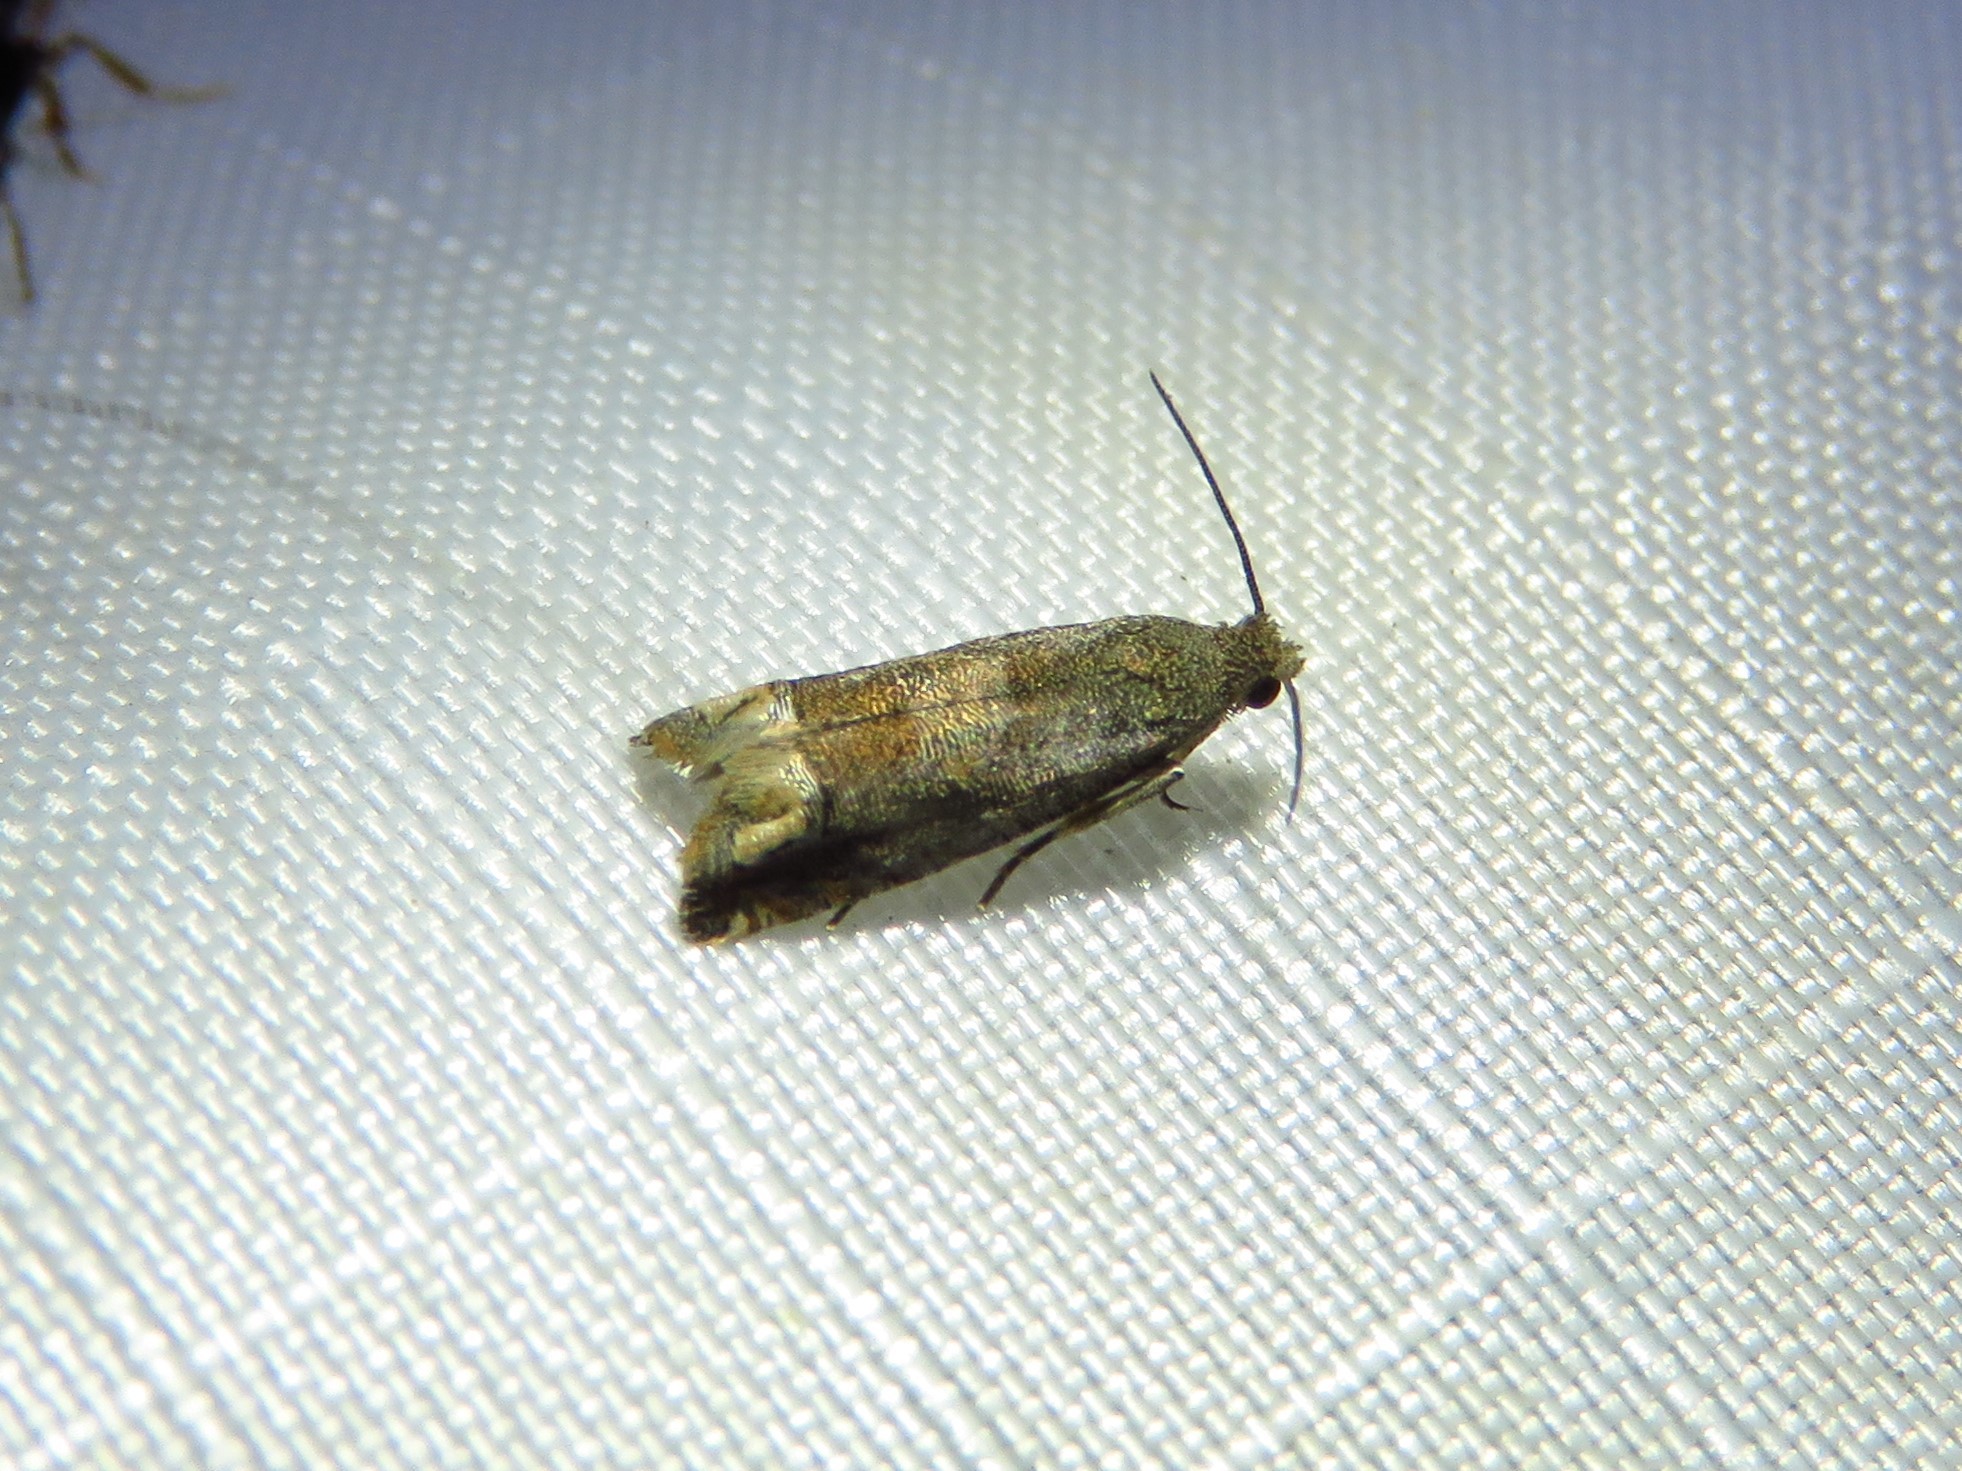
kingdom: Animalia
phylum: Arthropoda
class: Insecta
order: Lepidoptera
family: Tortricidae
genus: Epiblema
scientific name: Epiblema strenuana
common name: Ragweed borer moth
